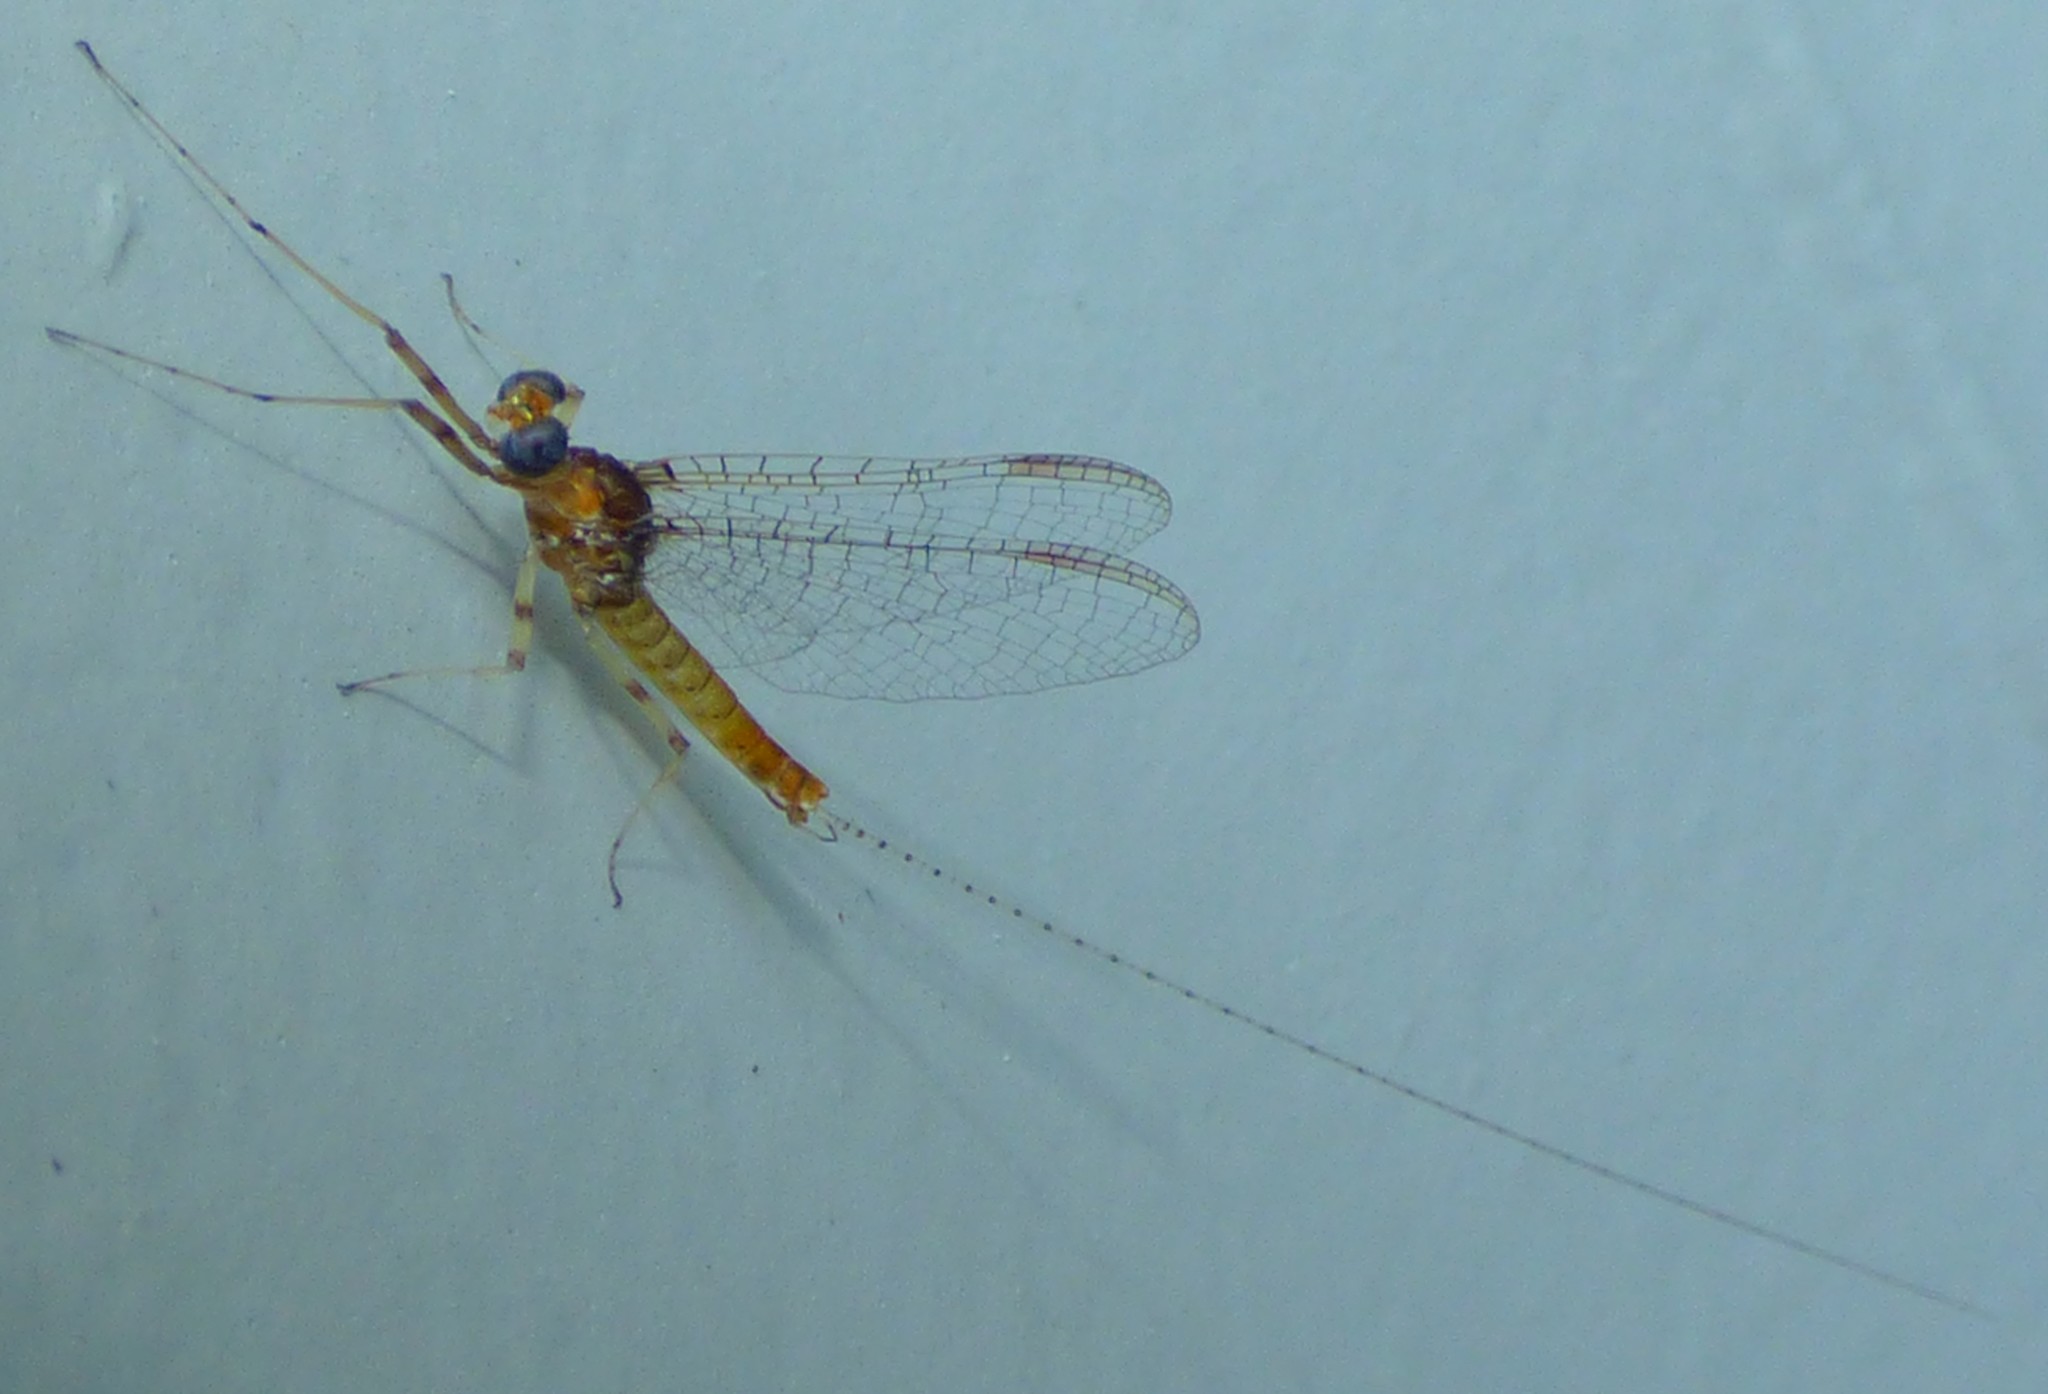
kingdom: Animalia
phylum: Arthropoda
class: Insecta
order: Ephemeroptera
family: Heptageniidae
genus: Maccaffertium
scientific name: Maccaffertium modestum
